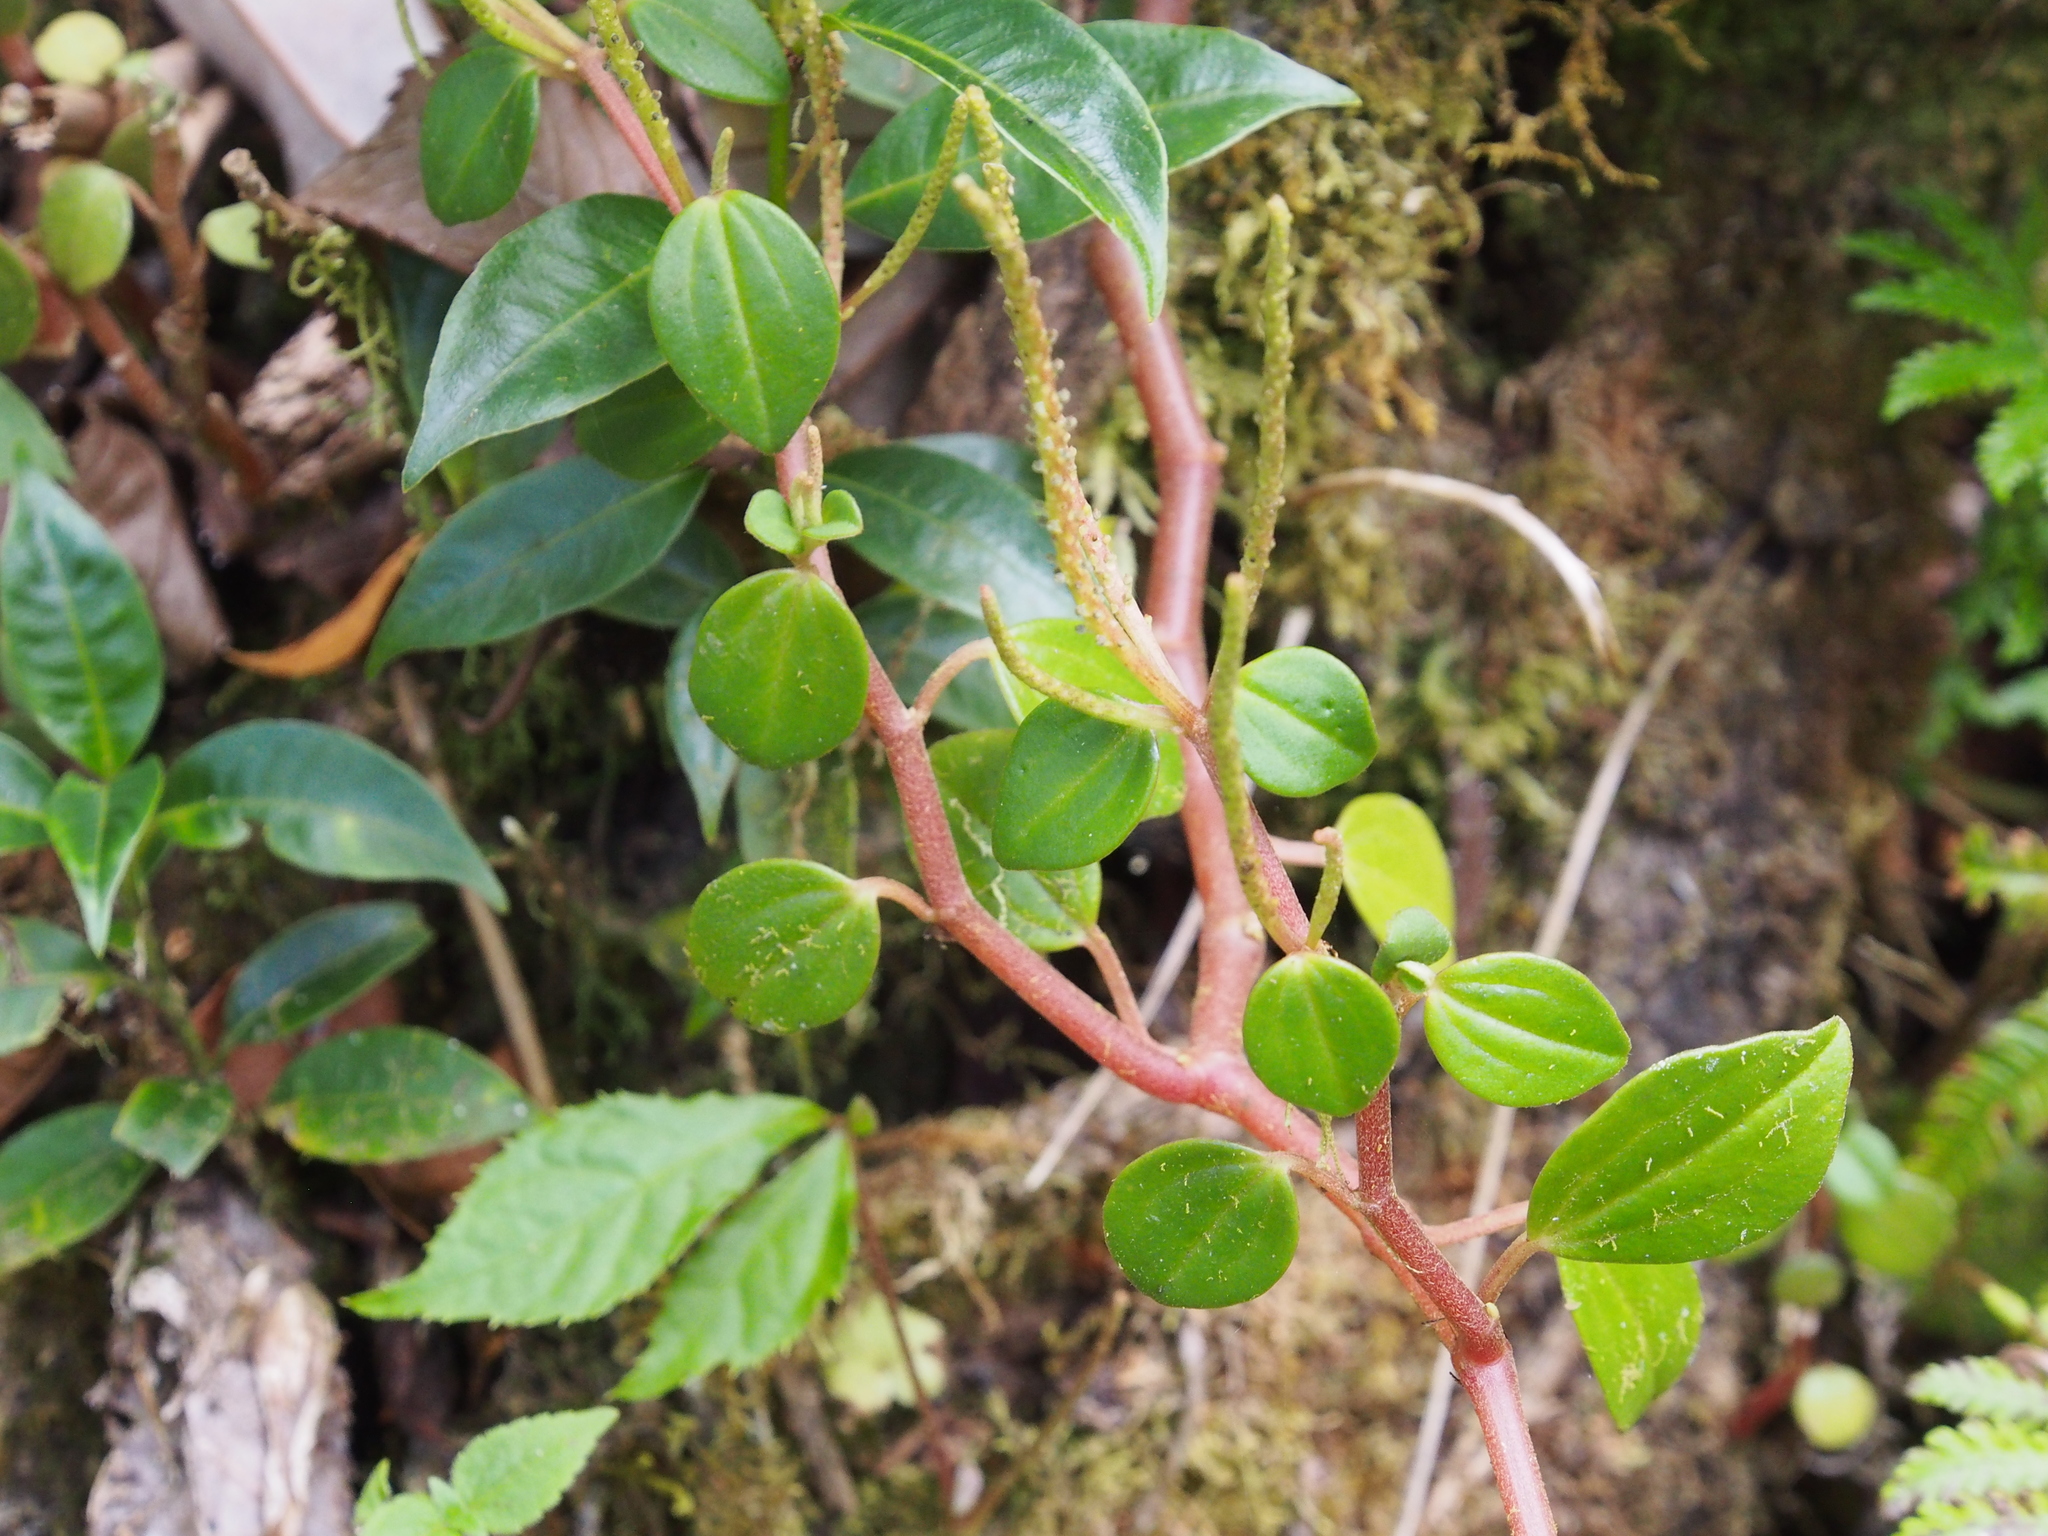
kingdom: Plantae
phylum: Tracheophyta
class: Magnoliopsida
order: Piperales
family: Piperaceae
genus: Peperomia
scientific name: Peperomia esperanzana
